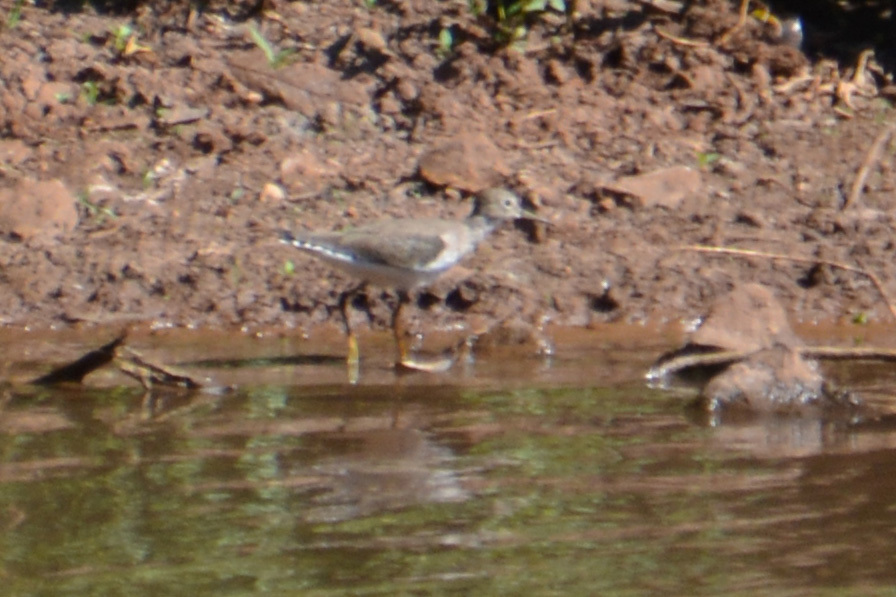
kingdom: Animalia
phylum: Chordata
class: Aves
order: Charadriiformes
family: Scolopacidae
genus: Tringa
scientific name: Tringa solitaria
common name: Solitary sandpiper
